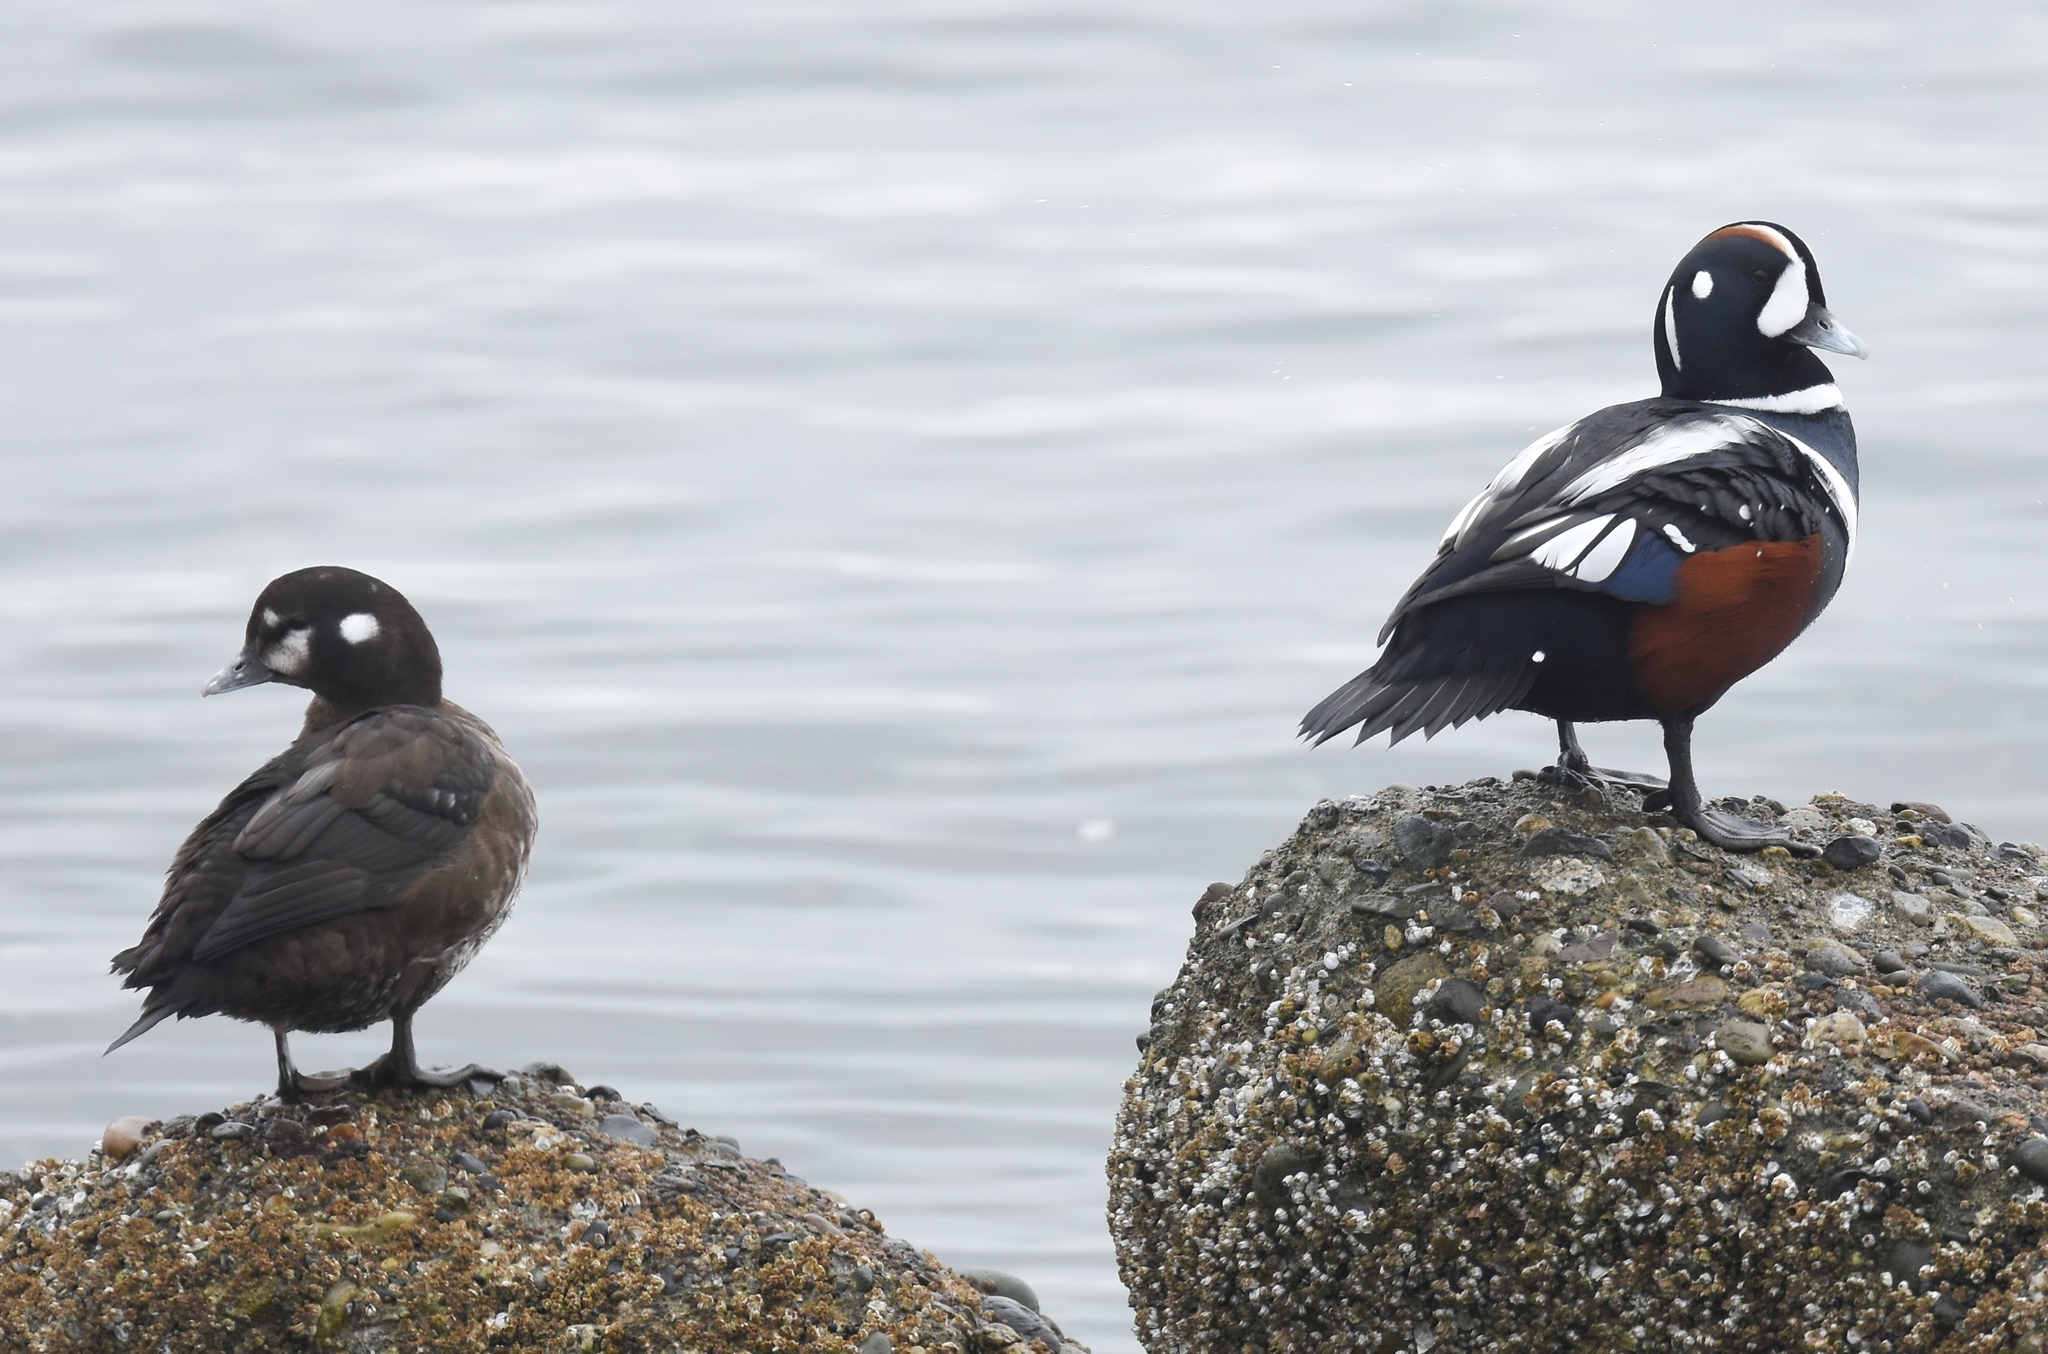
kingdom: Animalia
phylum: Chordata
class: Aves
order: Anseriformes
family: Anatidae
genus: Histrionicus
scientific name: Histrionicus histrionicus
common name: Harlequin duck
